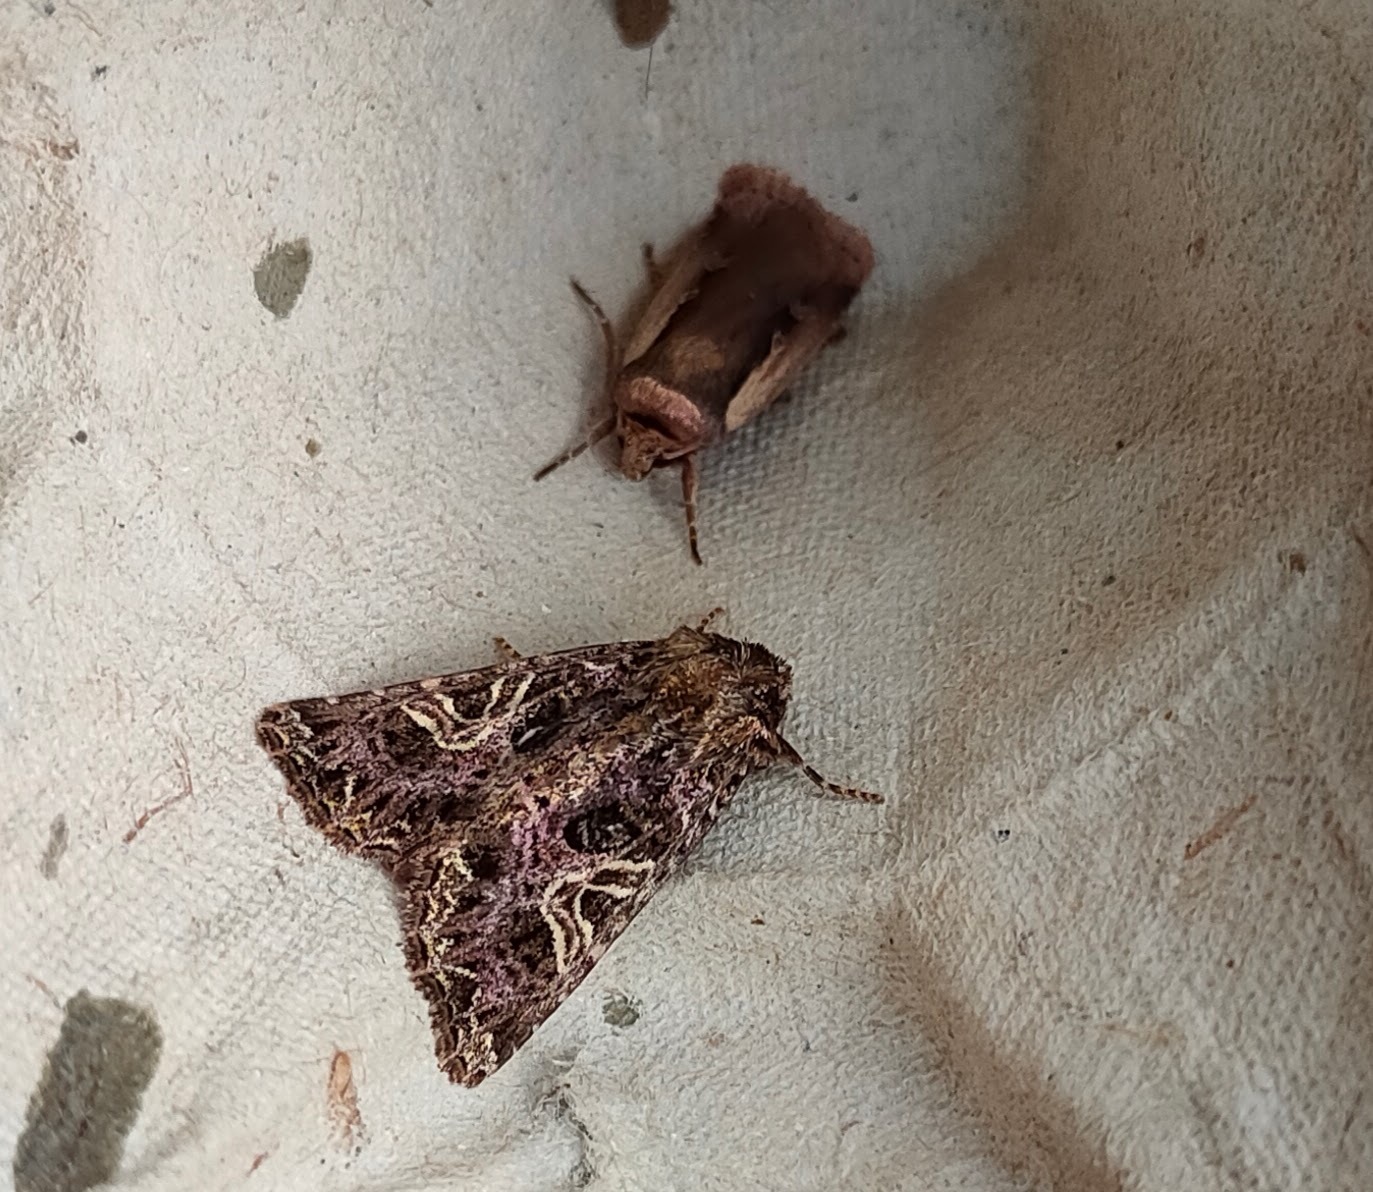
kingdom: Animalia
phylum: Arthropoda
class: Insecta
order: Lepidoptera
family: Noctuidae
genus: Sideridis
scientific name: Sideridis rivularis
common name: Campion
